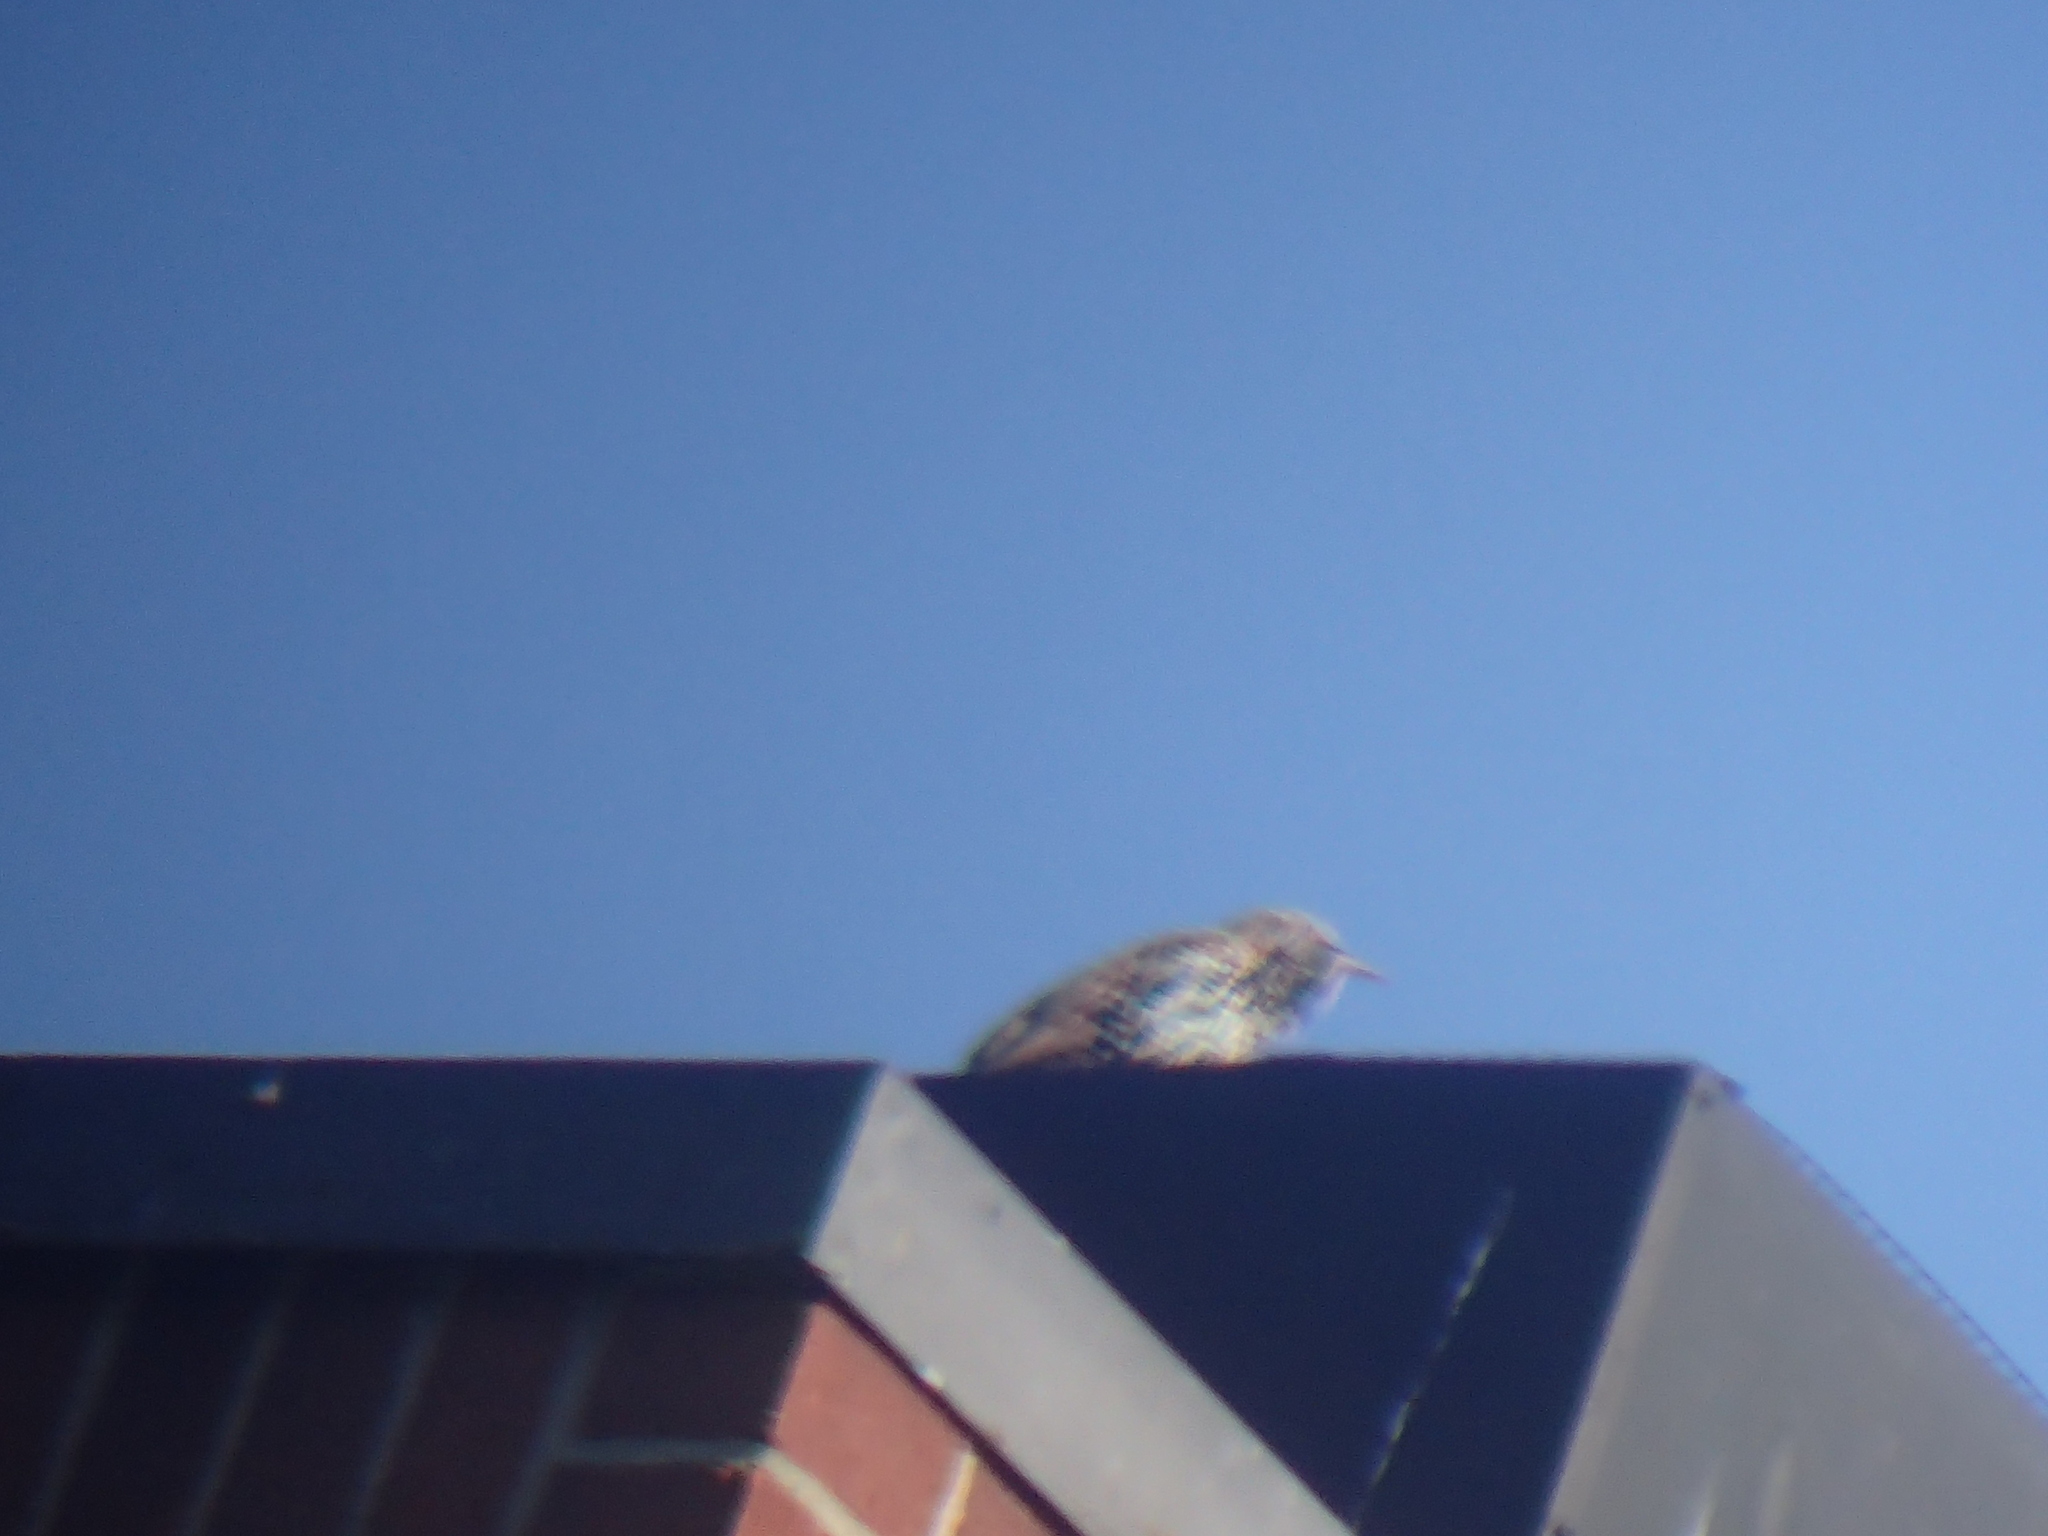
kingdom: Animalia
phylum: Chordata
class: Aves
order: Passeriformes
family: Sturnidae
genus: Sturnus
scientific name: Sturnus vulgaris
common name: Common starling
